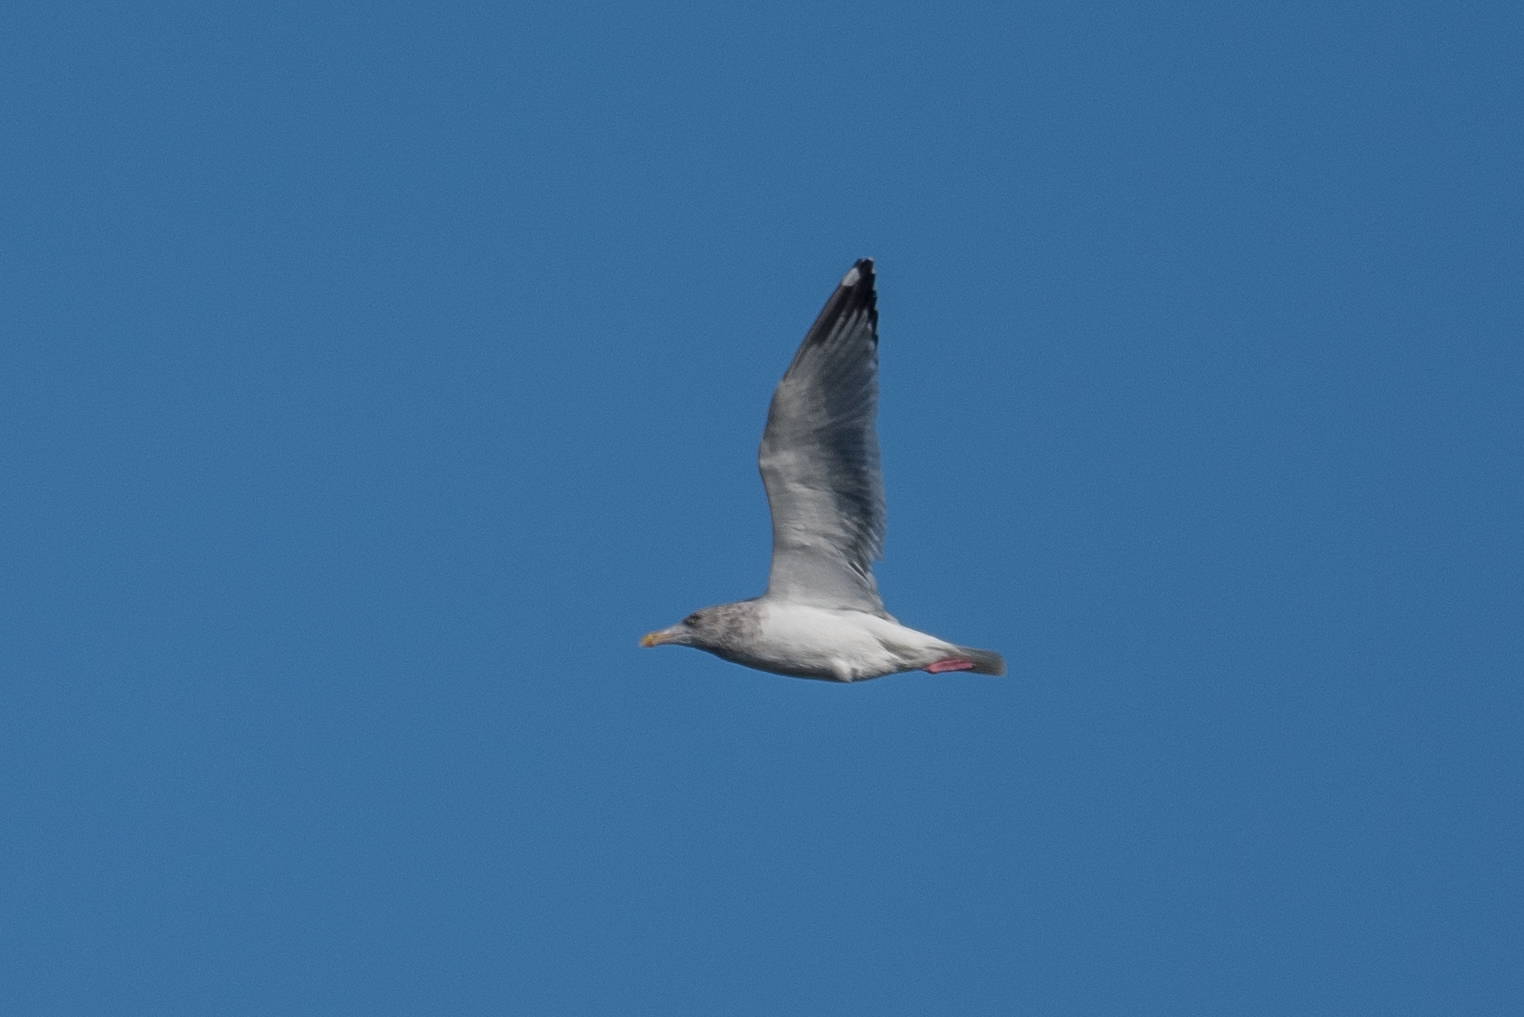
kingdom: Animalia
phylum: Chordata
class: Aves
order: Charadriiformes
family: Laridae
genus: Larus
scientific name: Larus argentatus
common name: Herring gull
